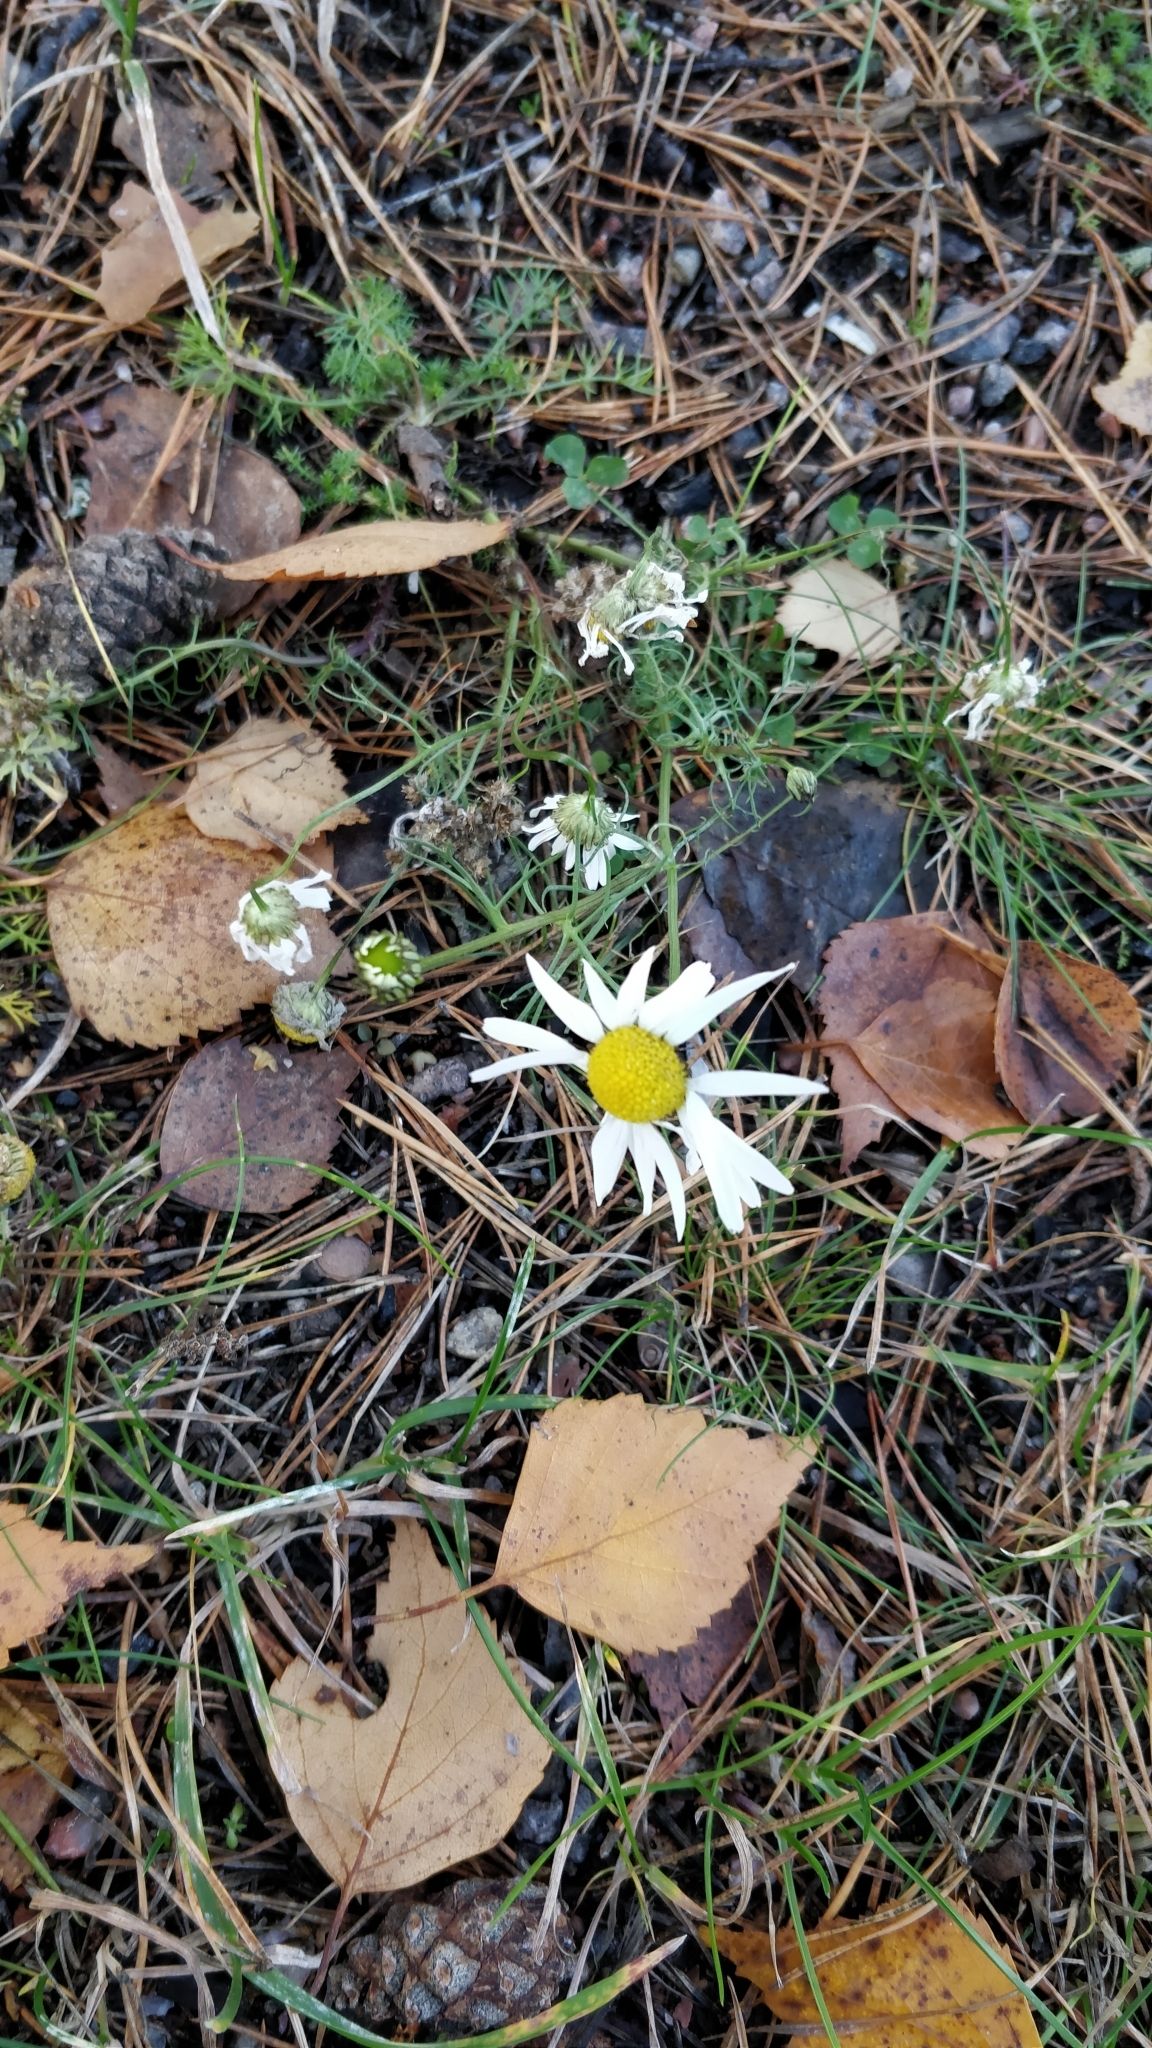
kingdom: Plantae
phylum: Tracheophyta
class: Magnoliopsida
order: Asterales
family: Asteraceae
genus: Tripleurospermum
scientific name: Tripleurospermum inodorum
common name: Scentless mayweed
